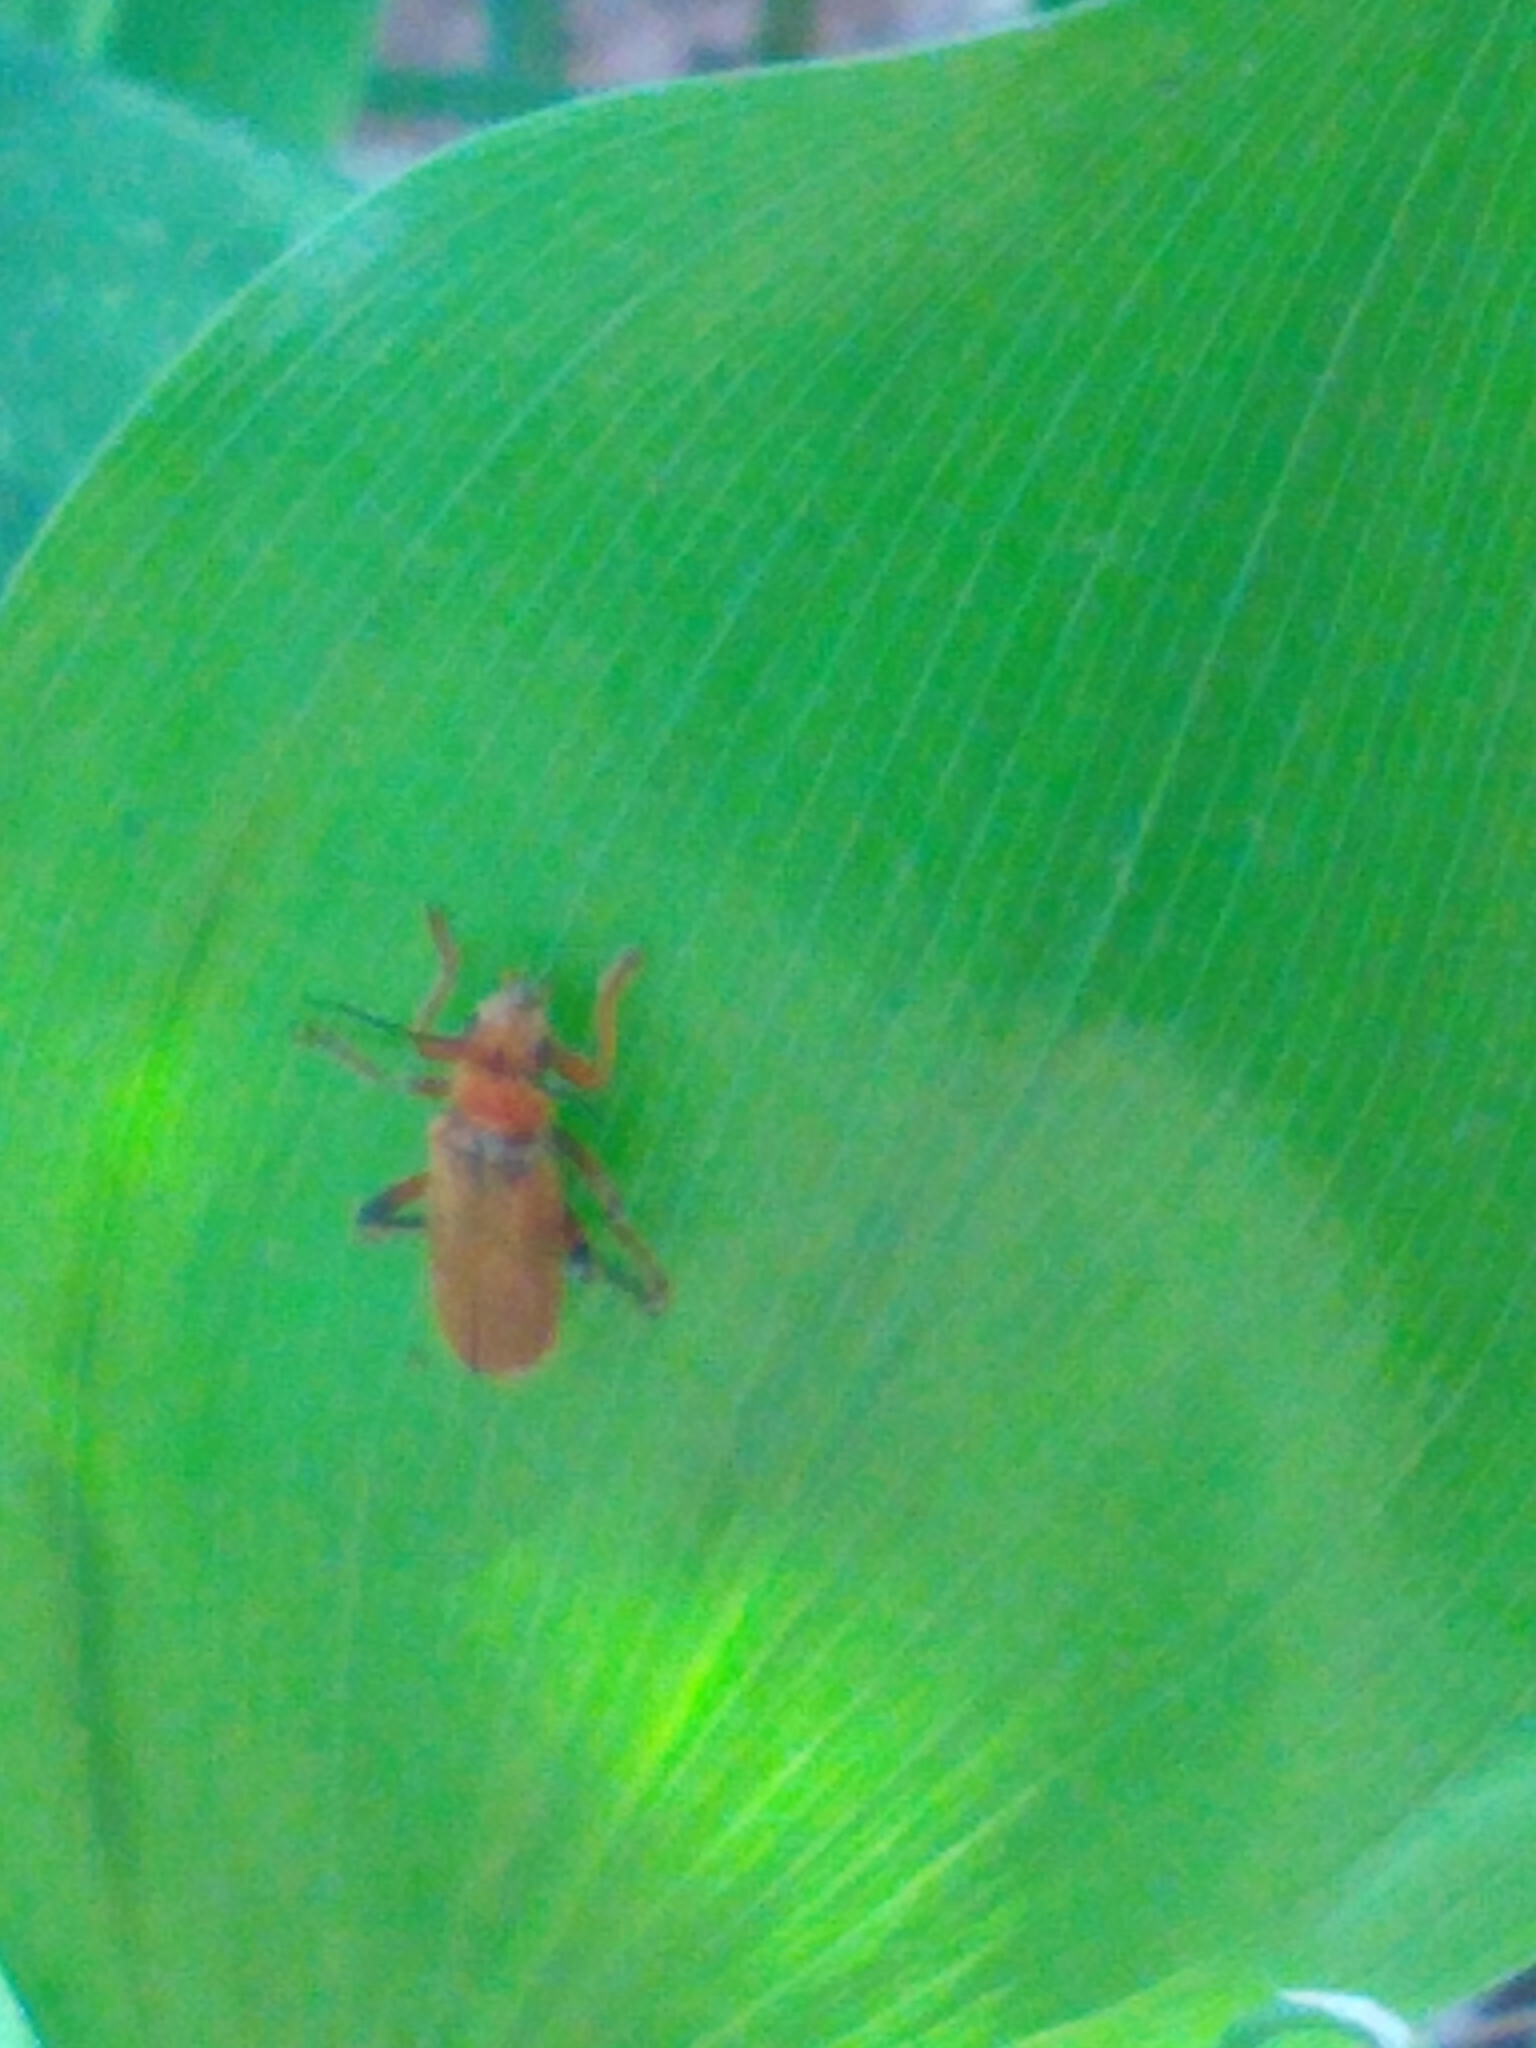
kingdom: Animalia
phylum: Arthropoda
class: Insecta
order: Coleoptera
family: Cantharidae
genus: Cantharis
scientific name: Cantharis livida
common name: Livid soldier beetle
